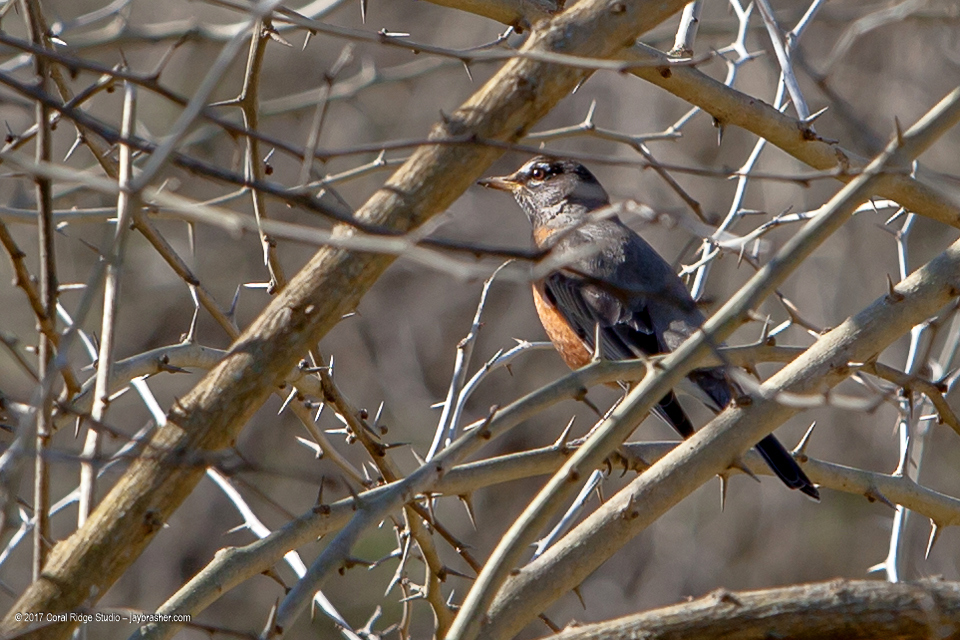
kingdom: Animalia
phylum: Chordata
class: Aves
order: Passeriformes
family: Turdidae
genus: Turdus
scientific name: Turdus migratorius
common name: American robin
